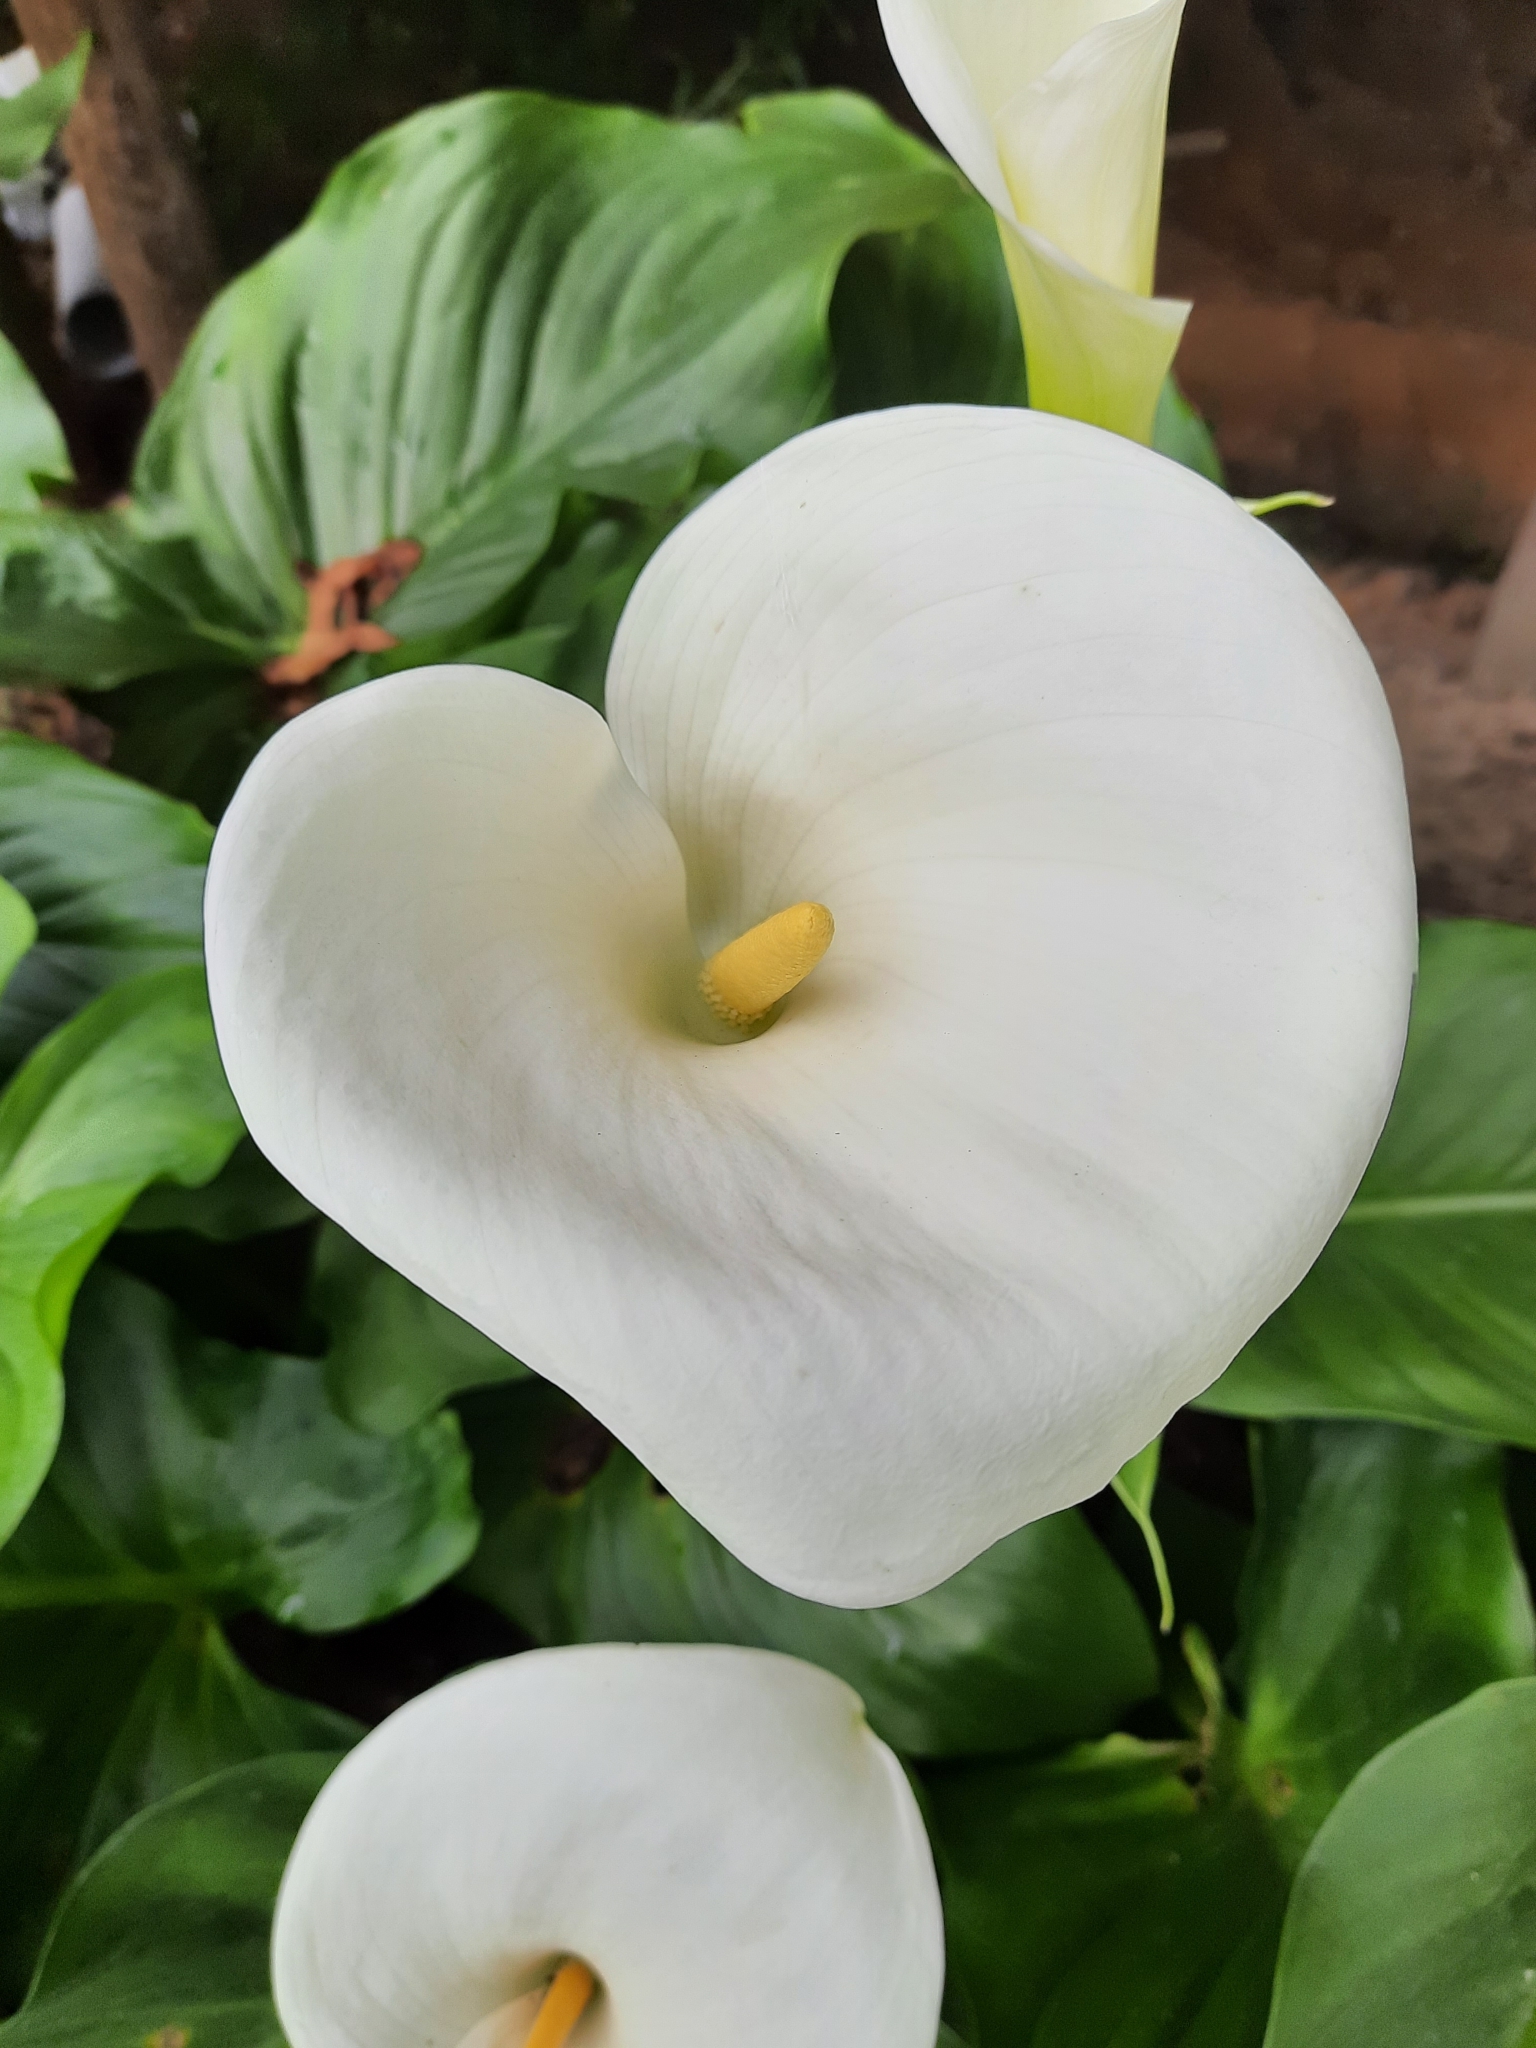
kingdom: Plantae
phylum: Tracheophyta
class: Liliopsida
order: Alismatales
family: Araceae
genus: Zantedeschia
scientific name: Zantedeschia aethiopica
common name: Altar-lily
